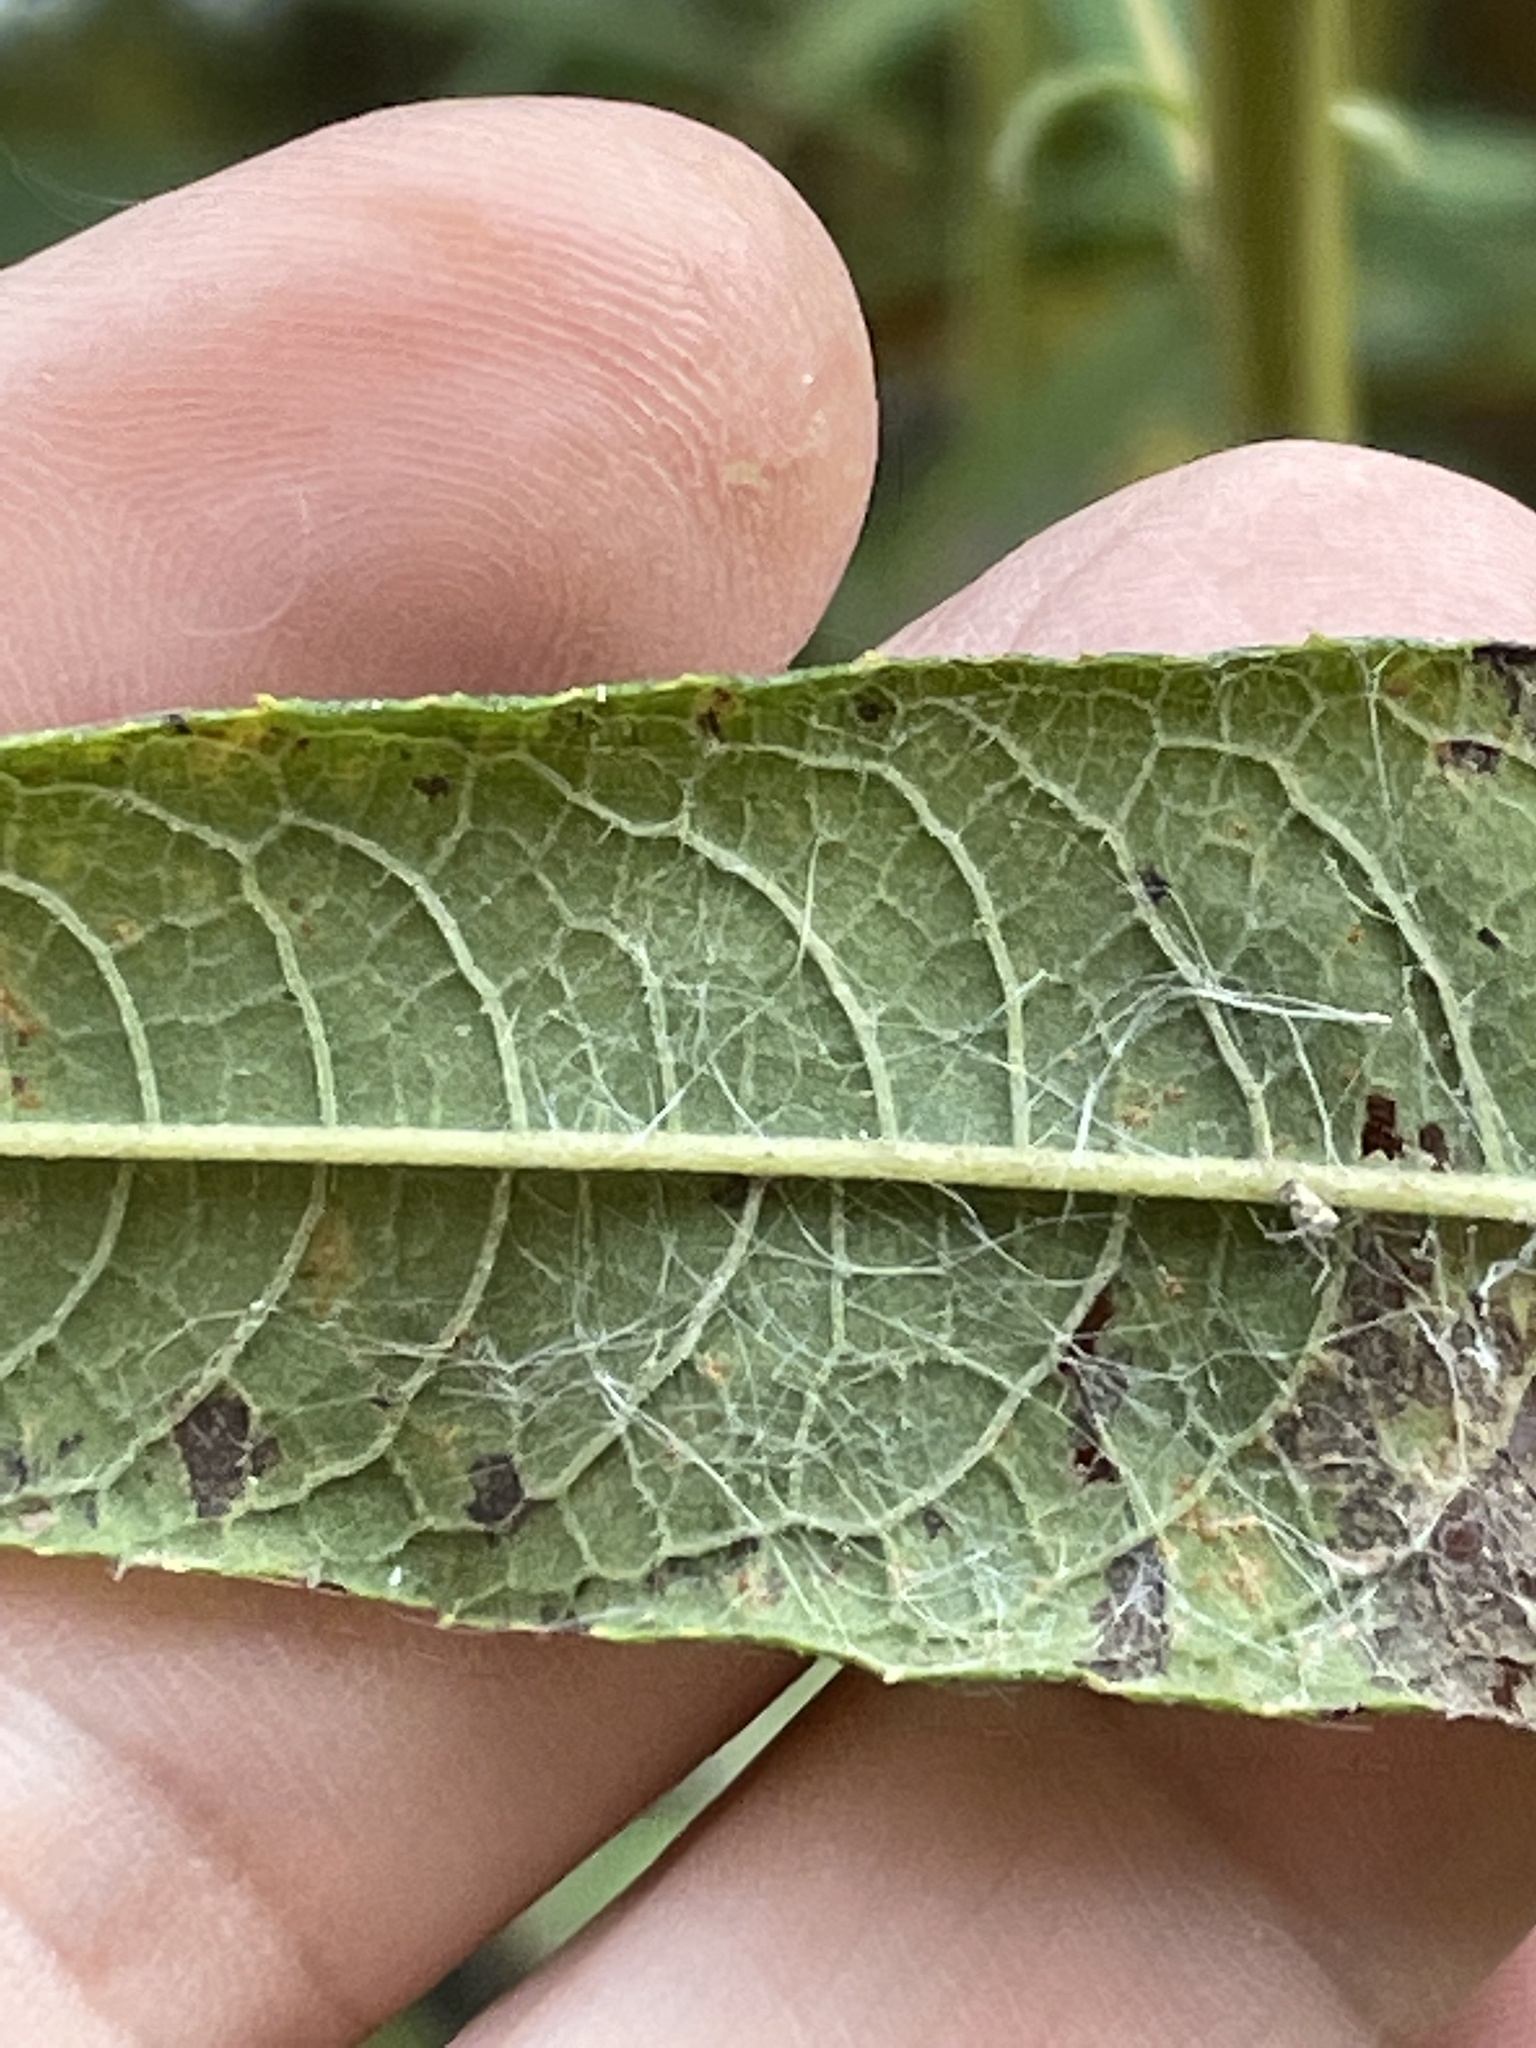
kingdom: Plantae
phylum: Tracheophyta
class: Magnoliopsida
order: Asterales
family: Asteraceae
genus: Vernonia
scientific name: Vernonia noveboracensis
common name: New york ironweed
